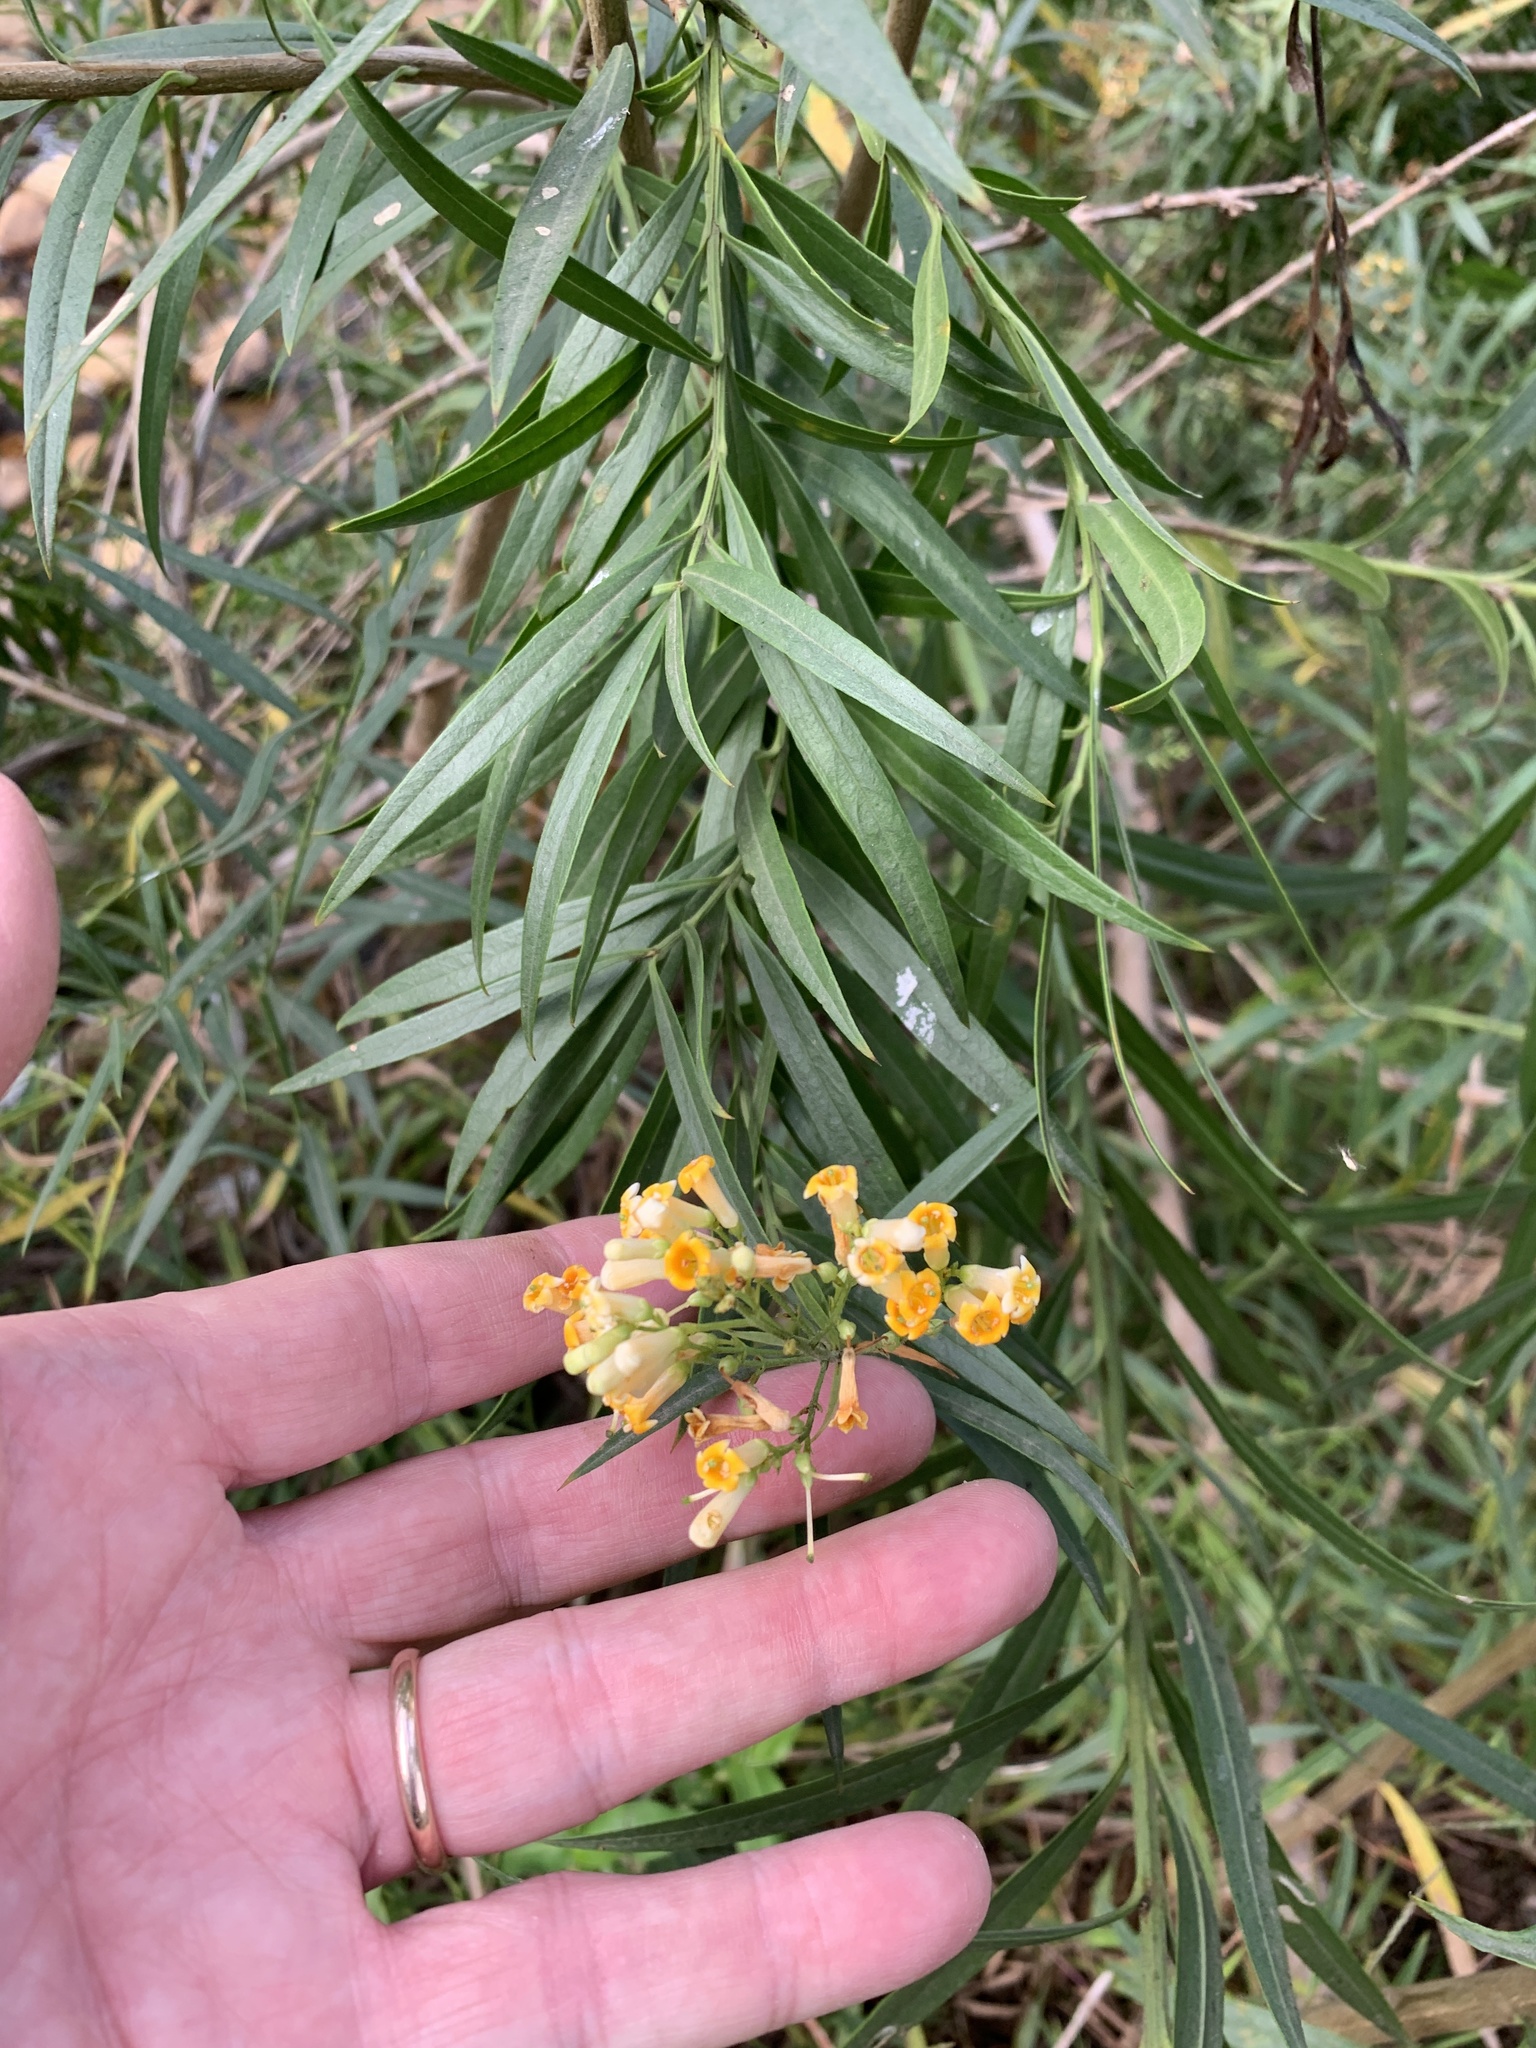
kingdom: Plantae
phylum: Tracheophyta
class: Magnoliopsida
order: Lamiales
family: Scrophulariaceae
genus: Freylinia
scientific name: Freylinia lanceolata
